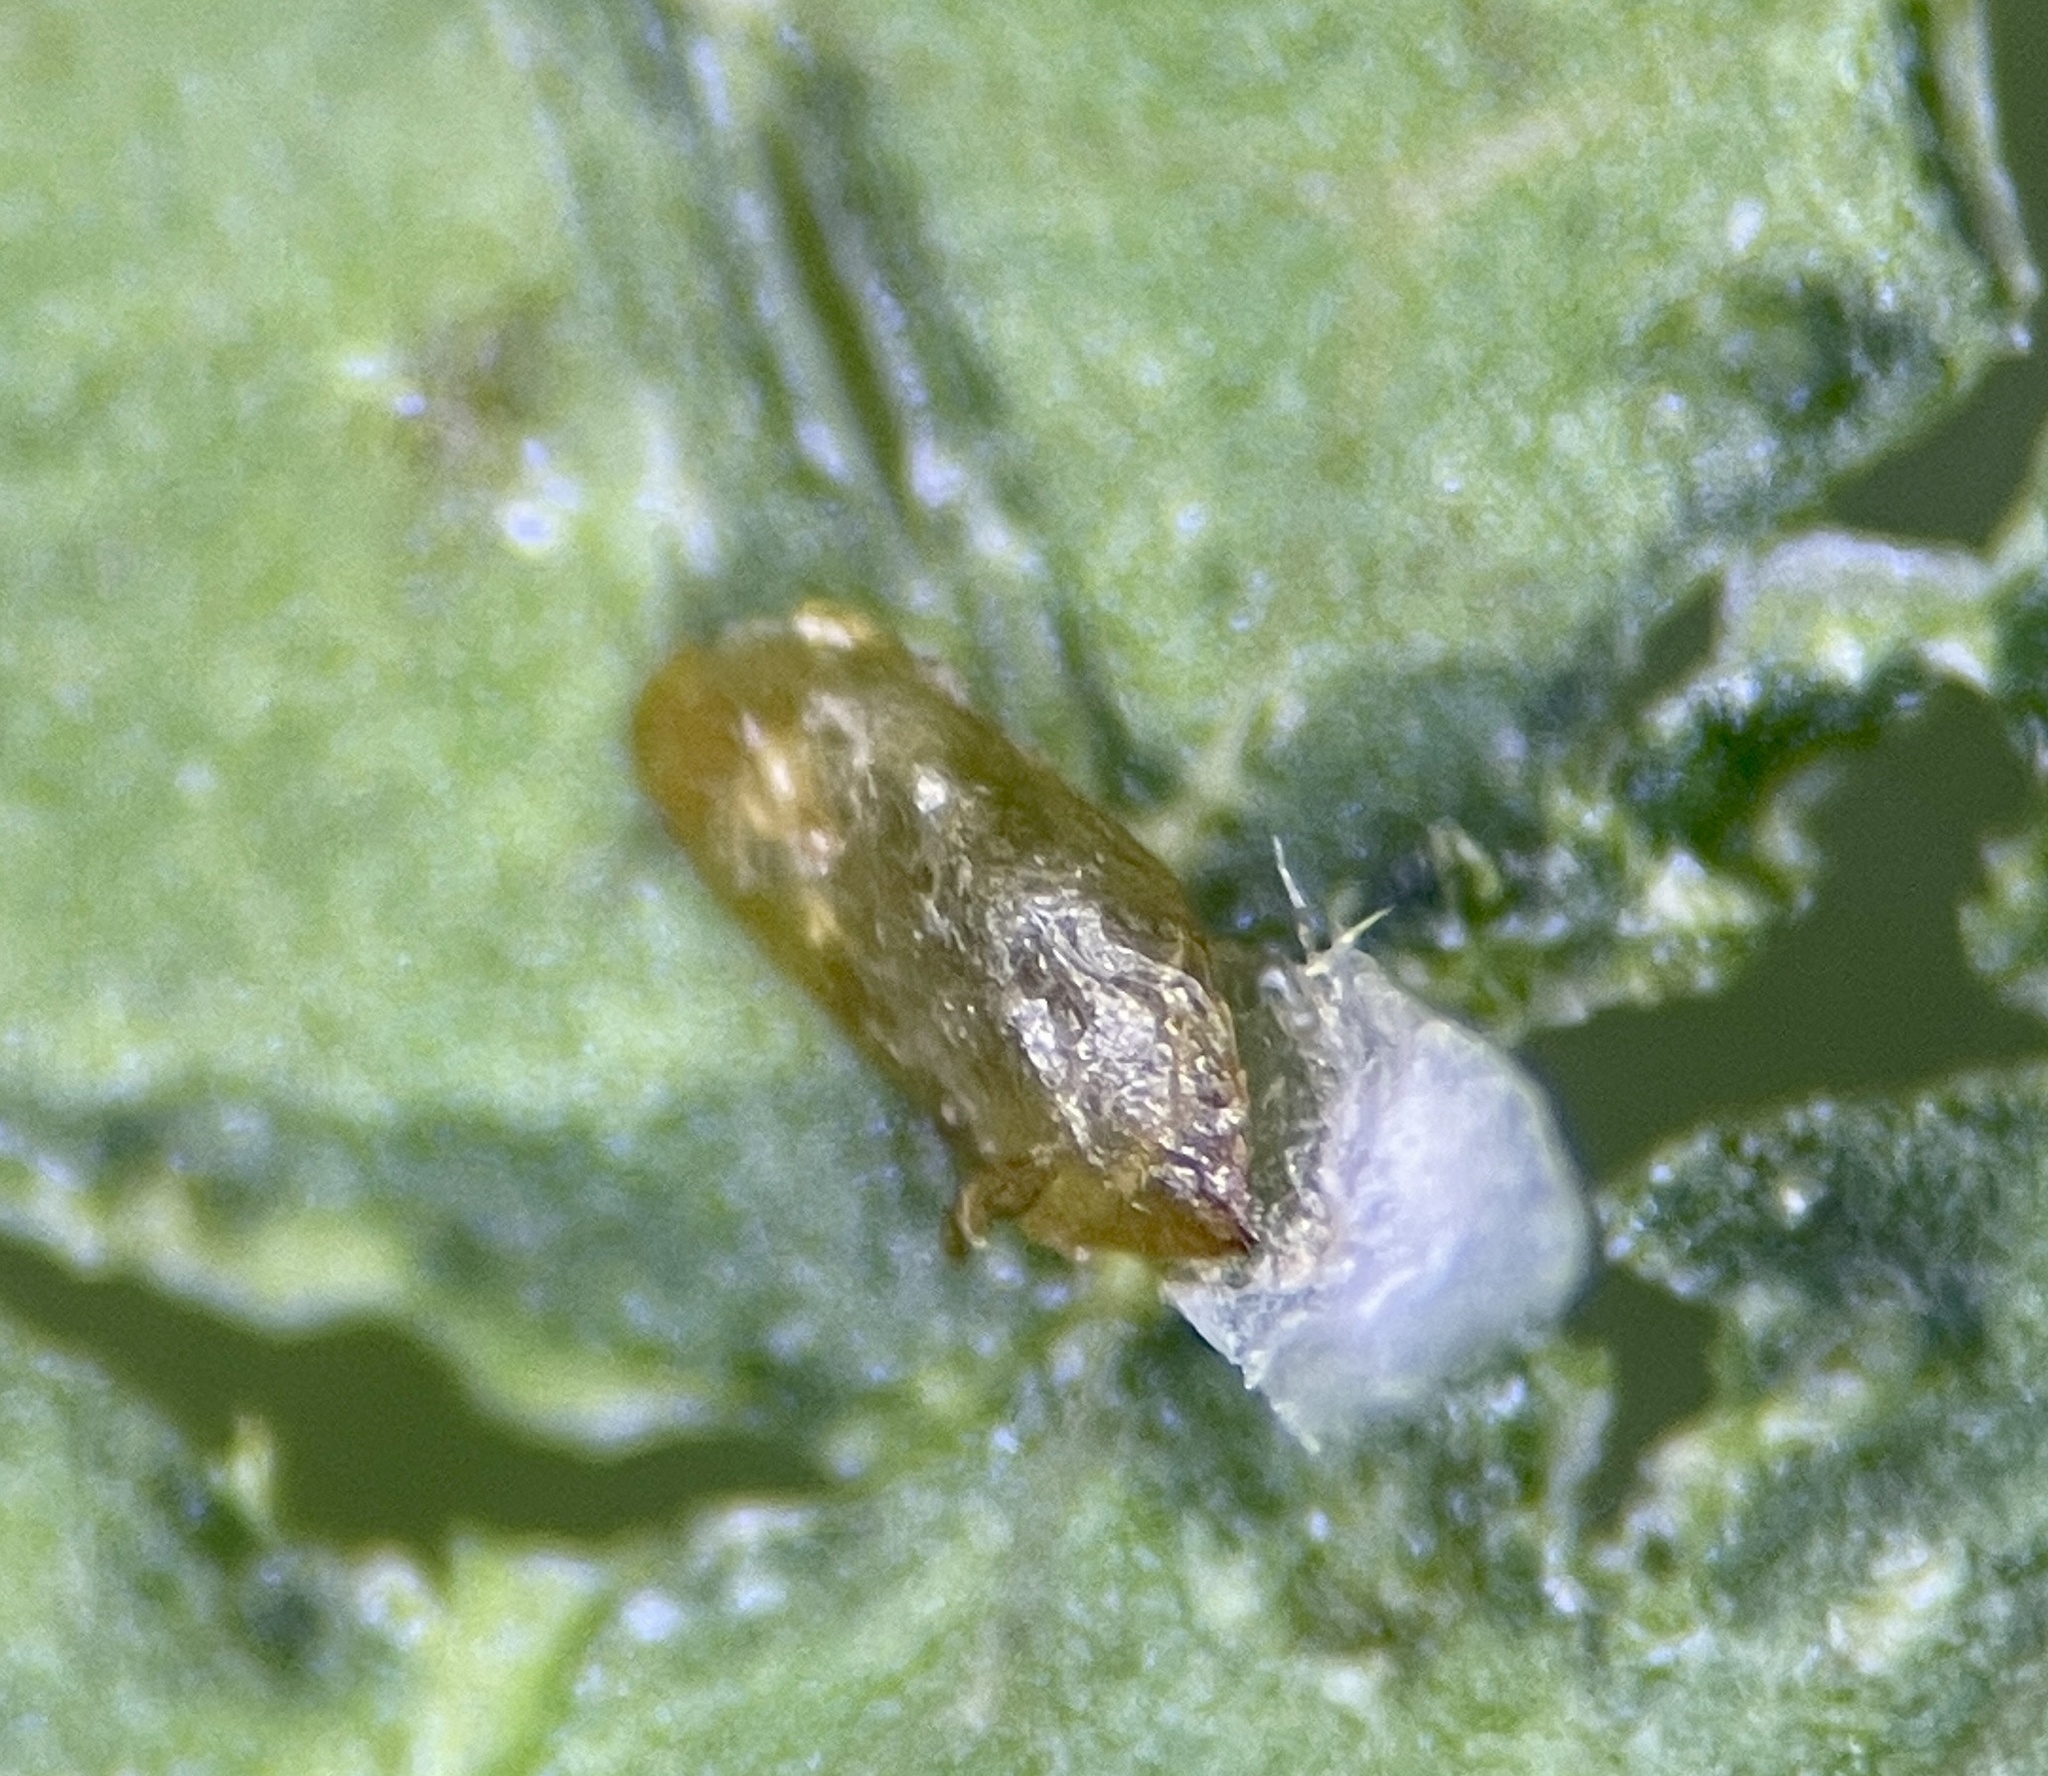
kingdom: Animalia
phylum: Arthropoda
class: Insecta
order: Hemiptera
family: Diaspididae
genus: Diaspidiotus
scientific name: Diaspidiotus liquidambaris
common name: Sweet gum scale
